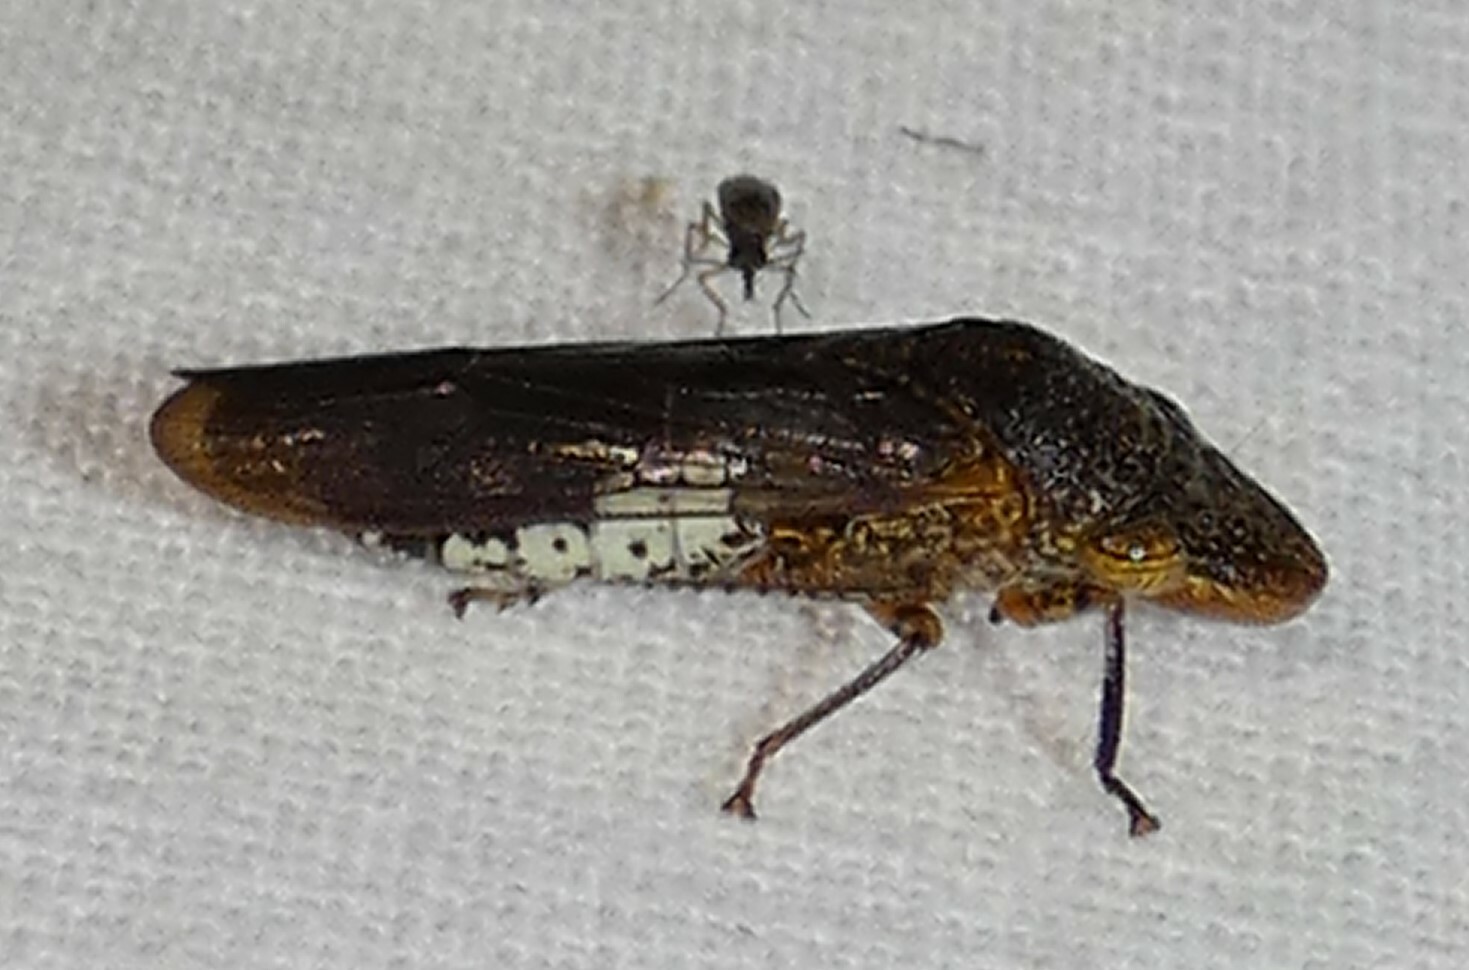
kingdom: Animalia
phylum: Arthropoda
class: Insecta
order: Hemiptera
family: Cicadellidae
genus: Homalodisca
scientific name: Homalodisca vitripennis
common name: Glassy-winged sharpshooter
